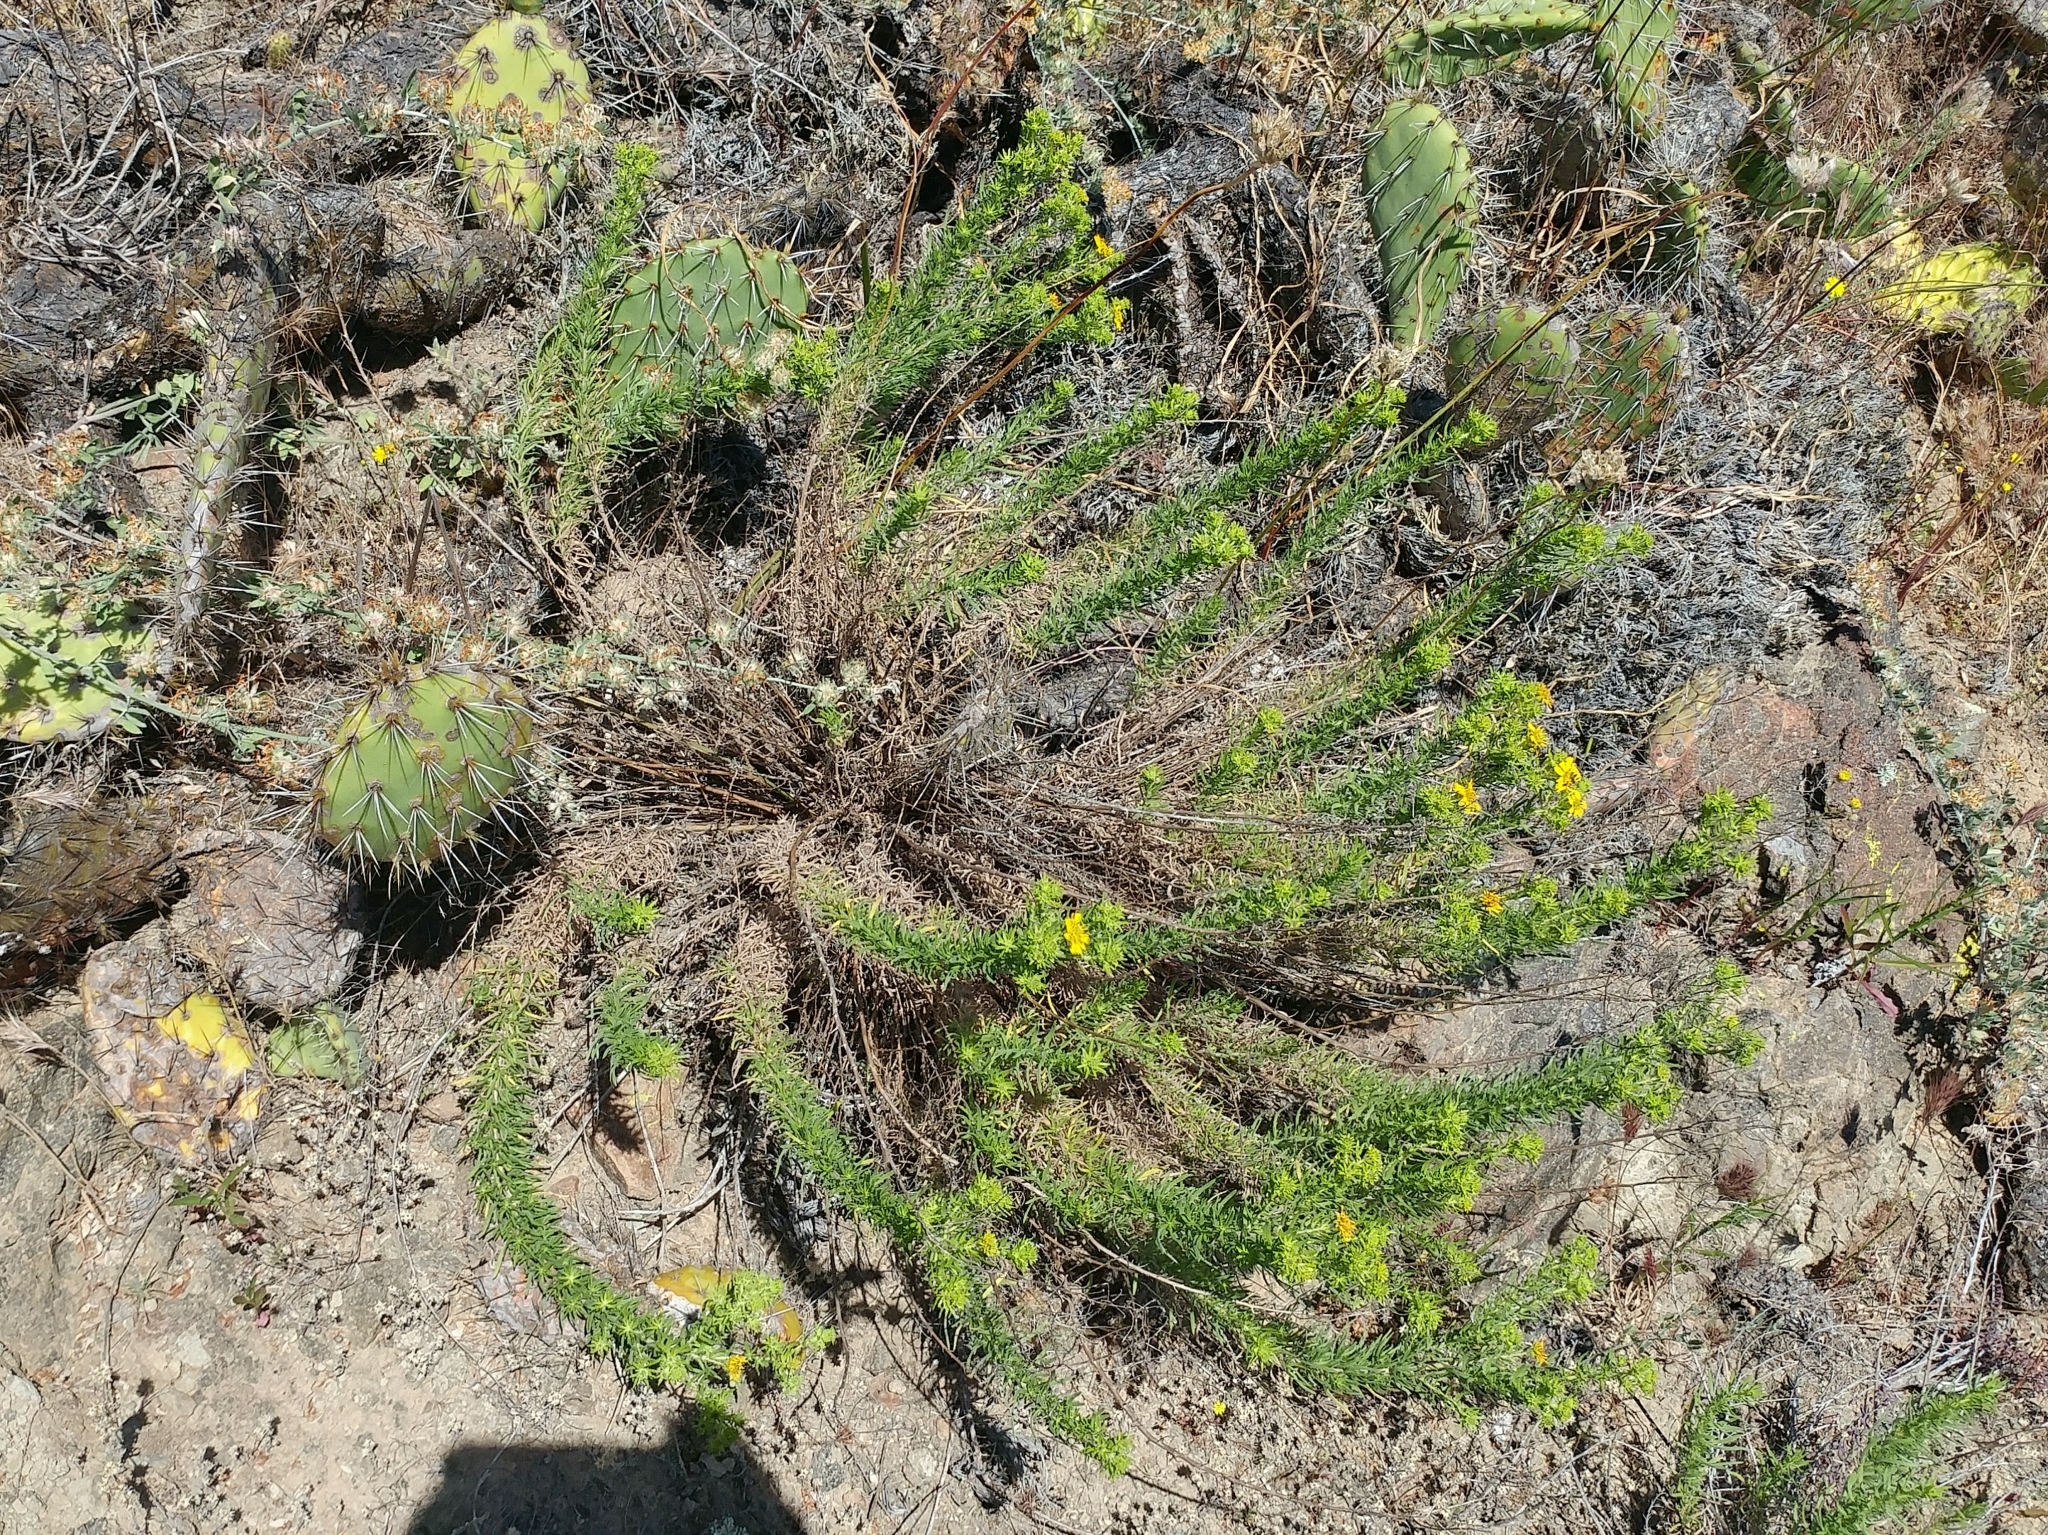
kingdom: Plantae
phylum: Tracheophyta
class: Magnoliopsida
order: Asterales
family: Asteraceae
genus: Deinandra
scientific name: Deinandra clementina
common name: Island tarplant
